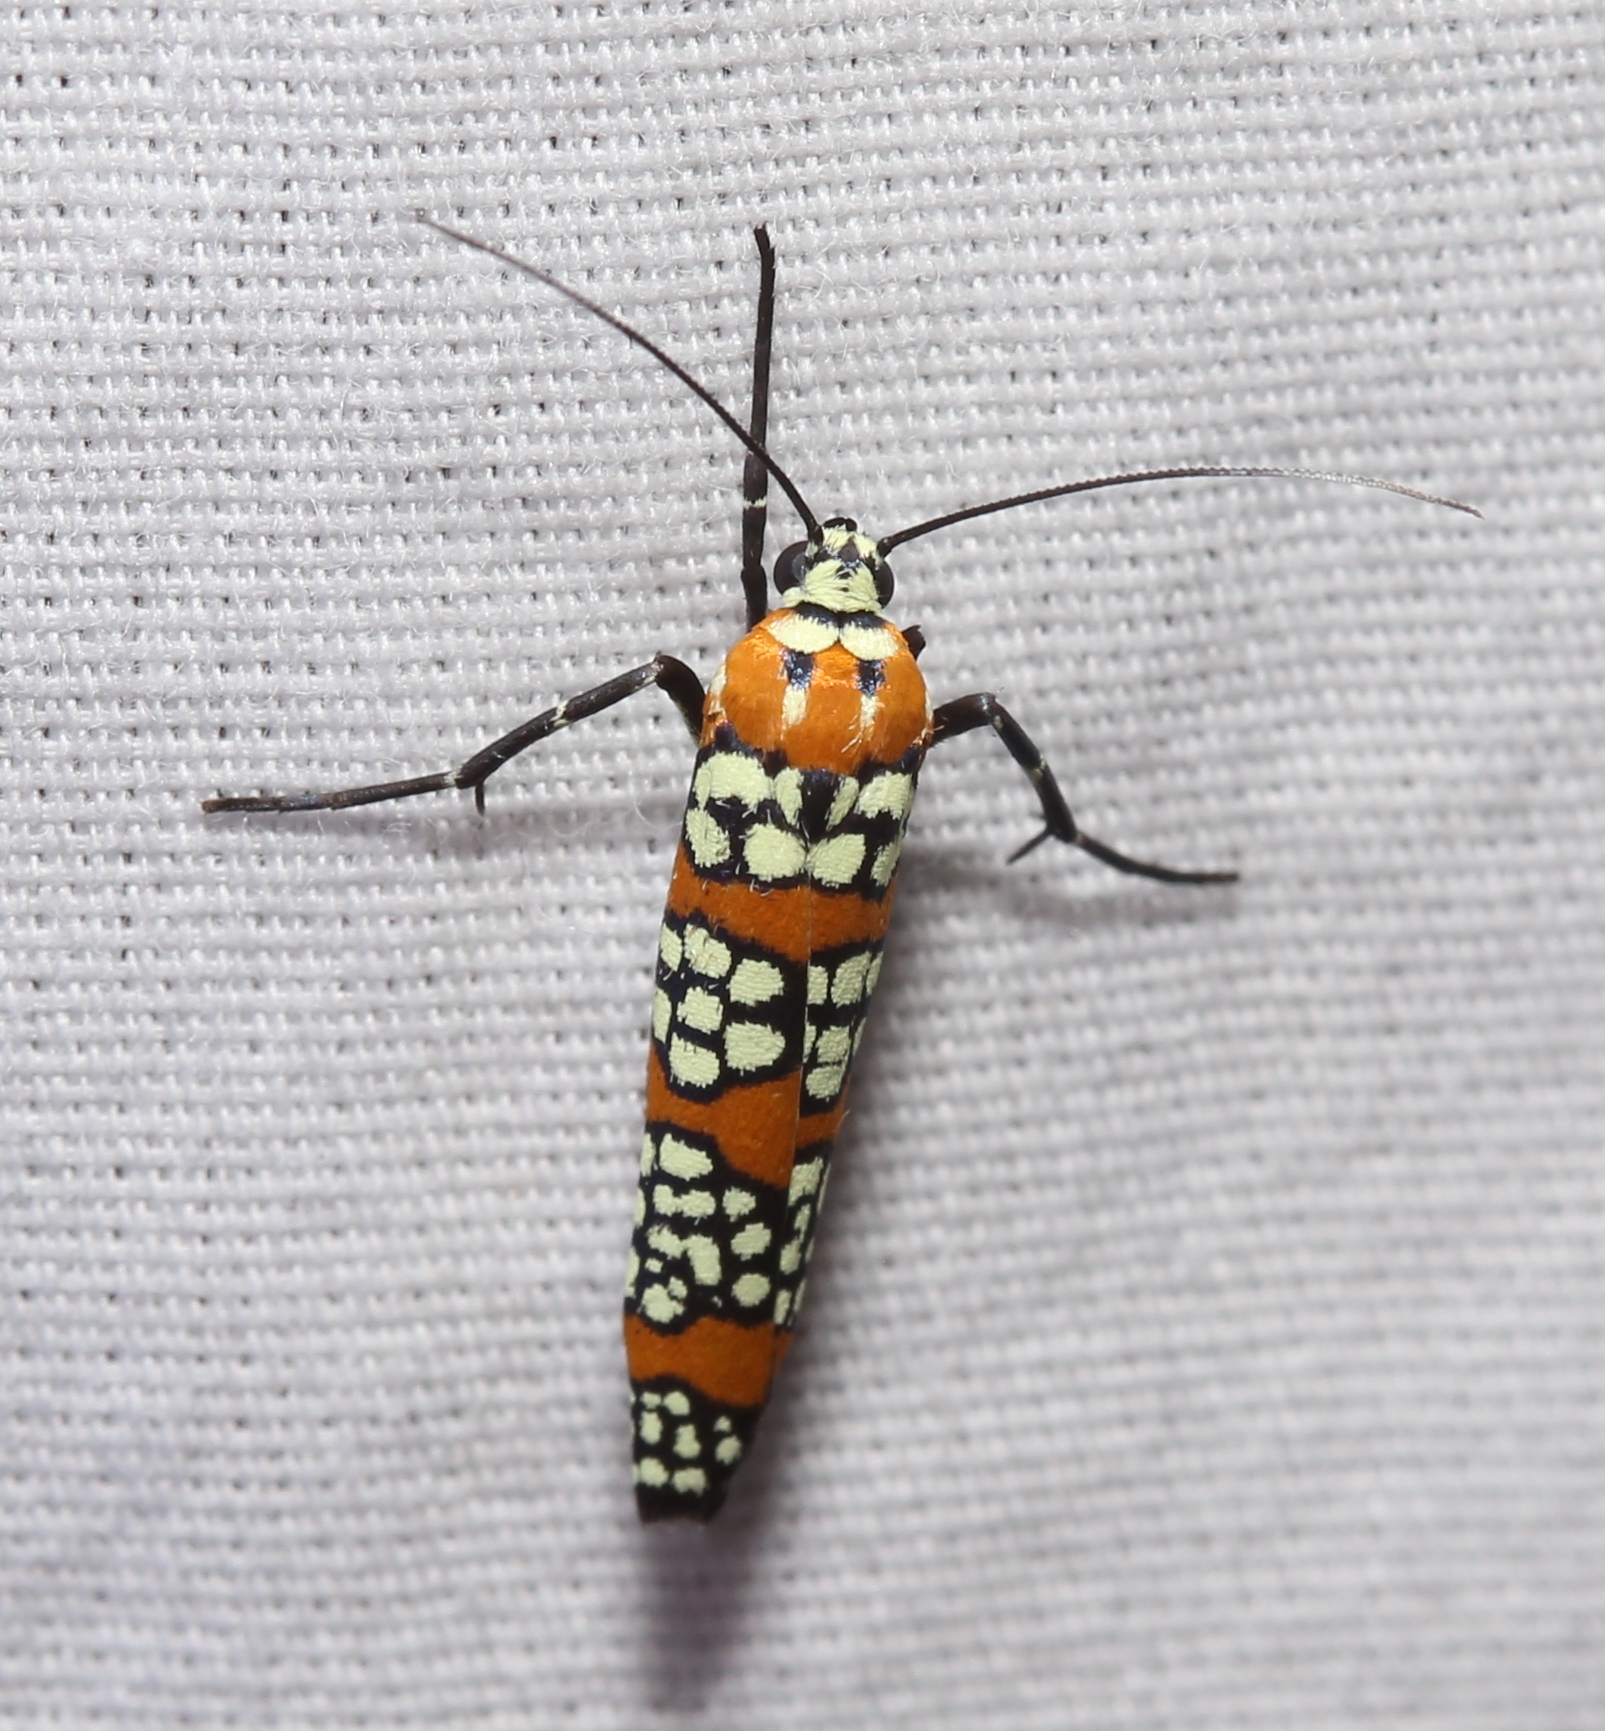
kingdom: Animalia
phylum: Arthropoda
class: Insecta
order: Lepidoptera
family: Attevidae
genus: Atteva
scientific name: Atteva punctella
